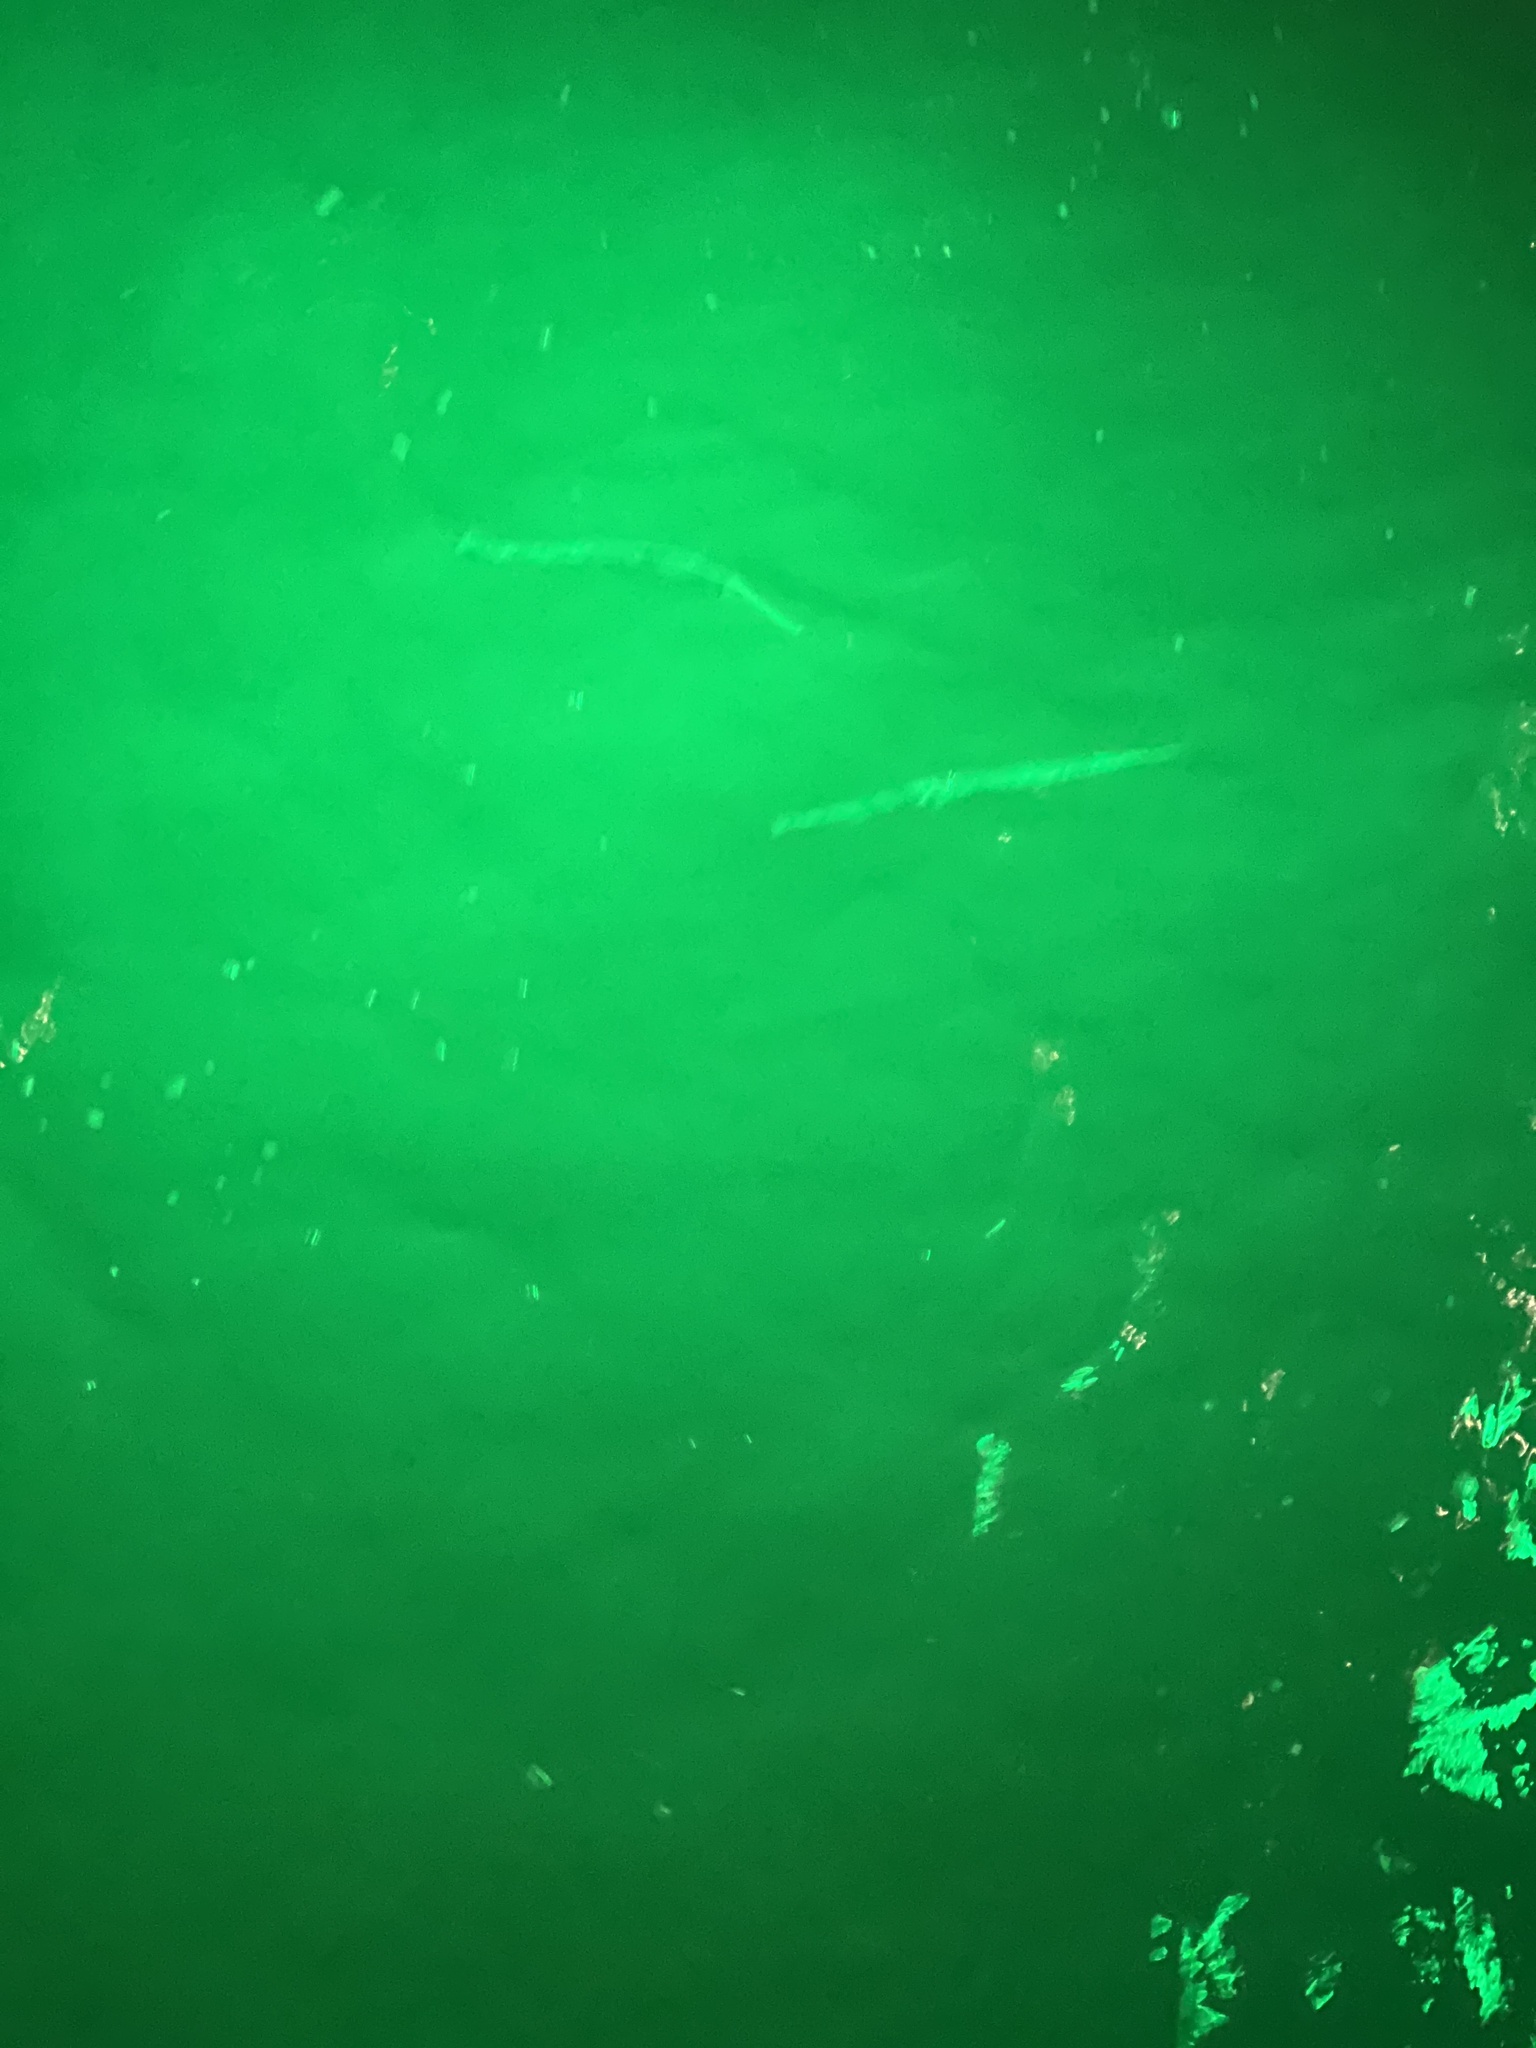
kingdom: Animalia
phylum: Chordata
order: Beloniformes
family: Belonidae
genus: Strongylura
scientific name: Strongylura marina
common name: Atlantic needlefish
